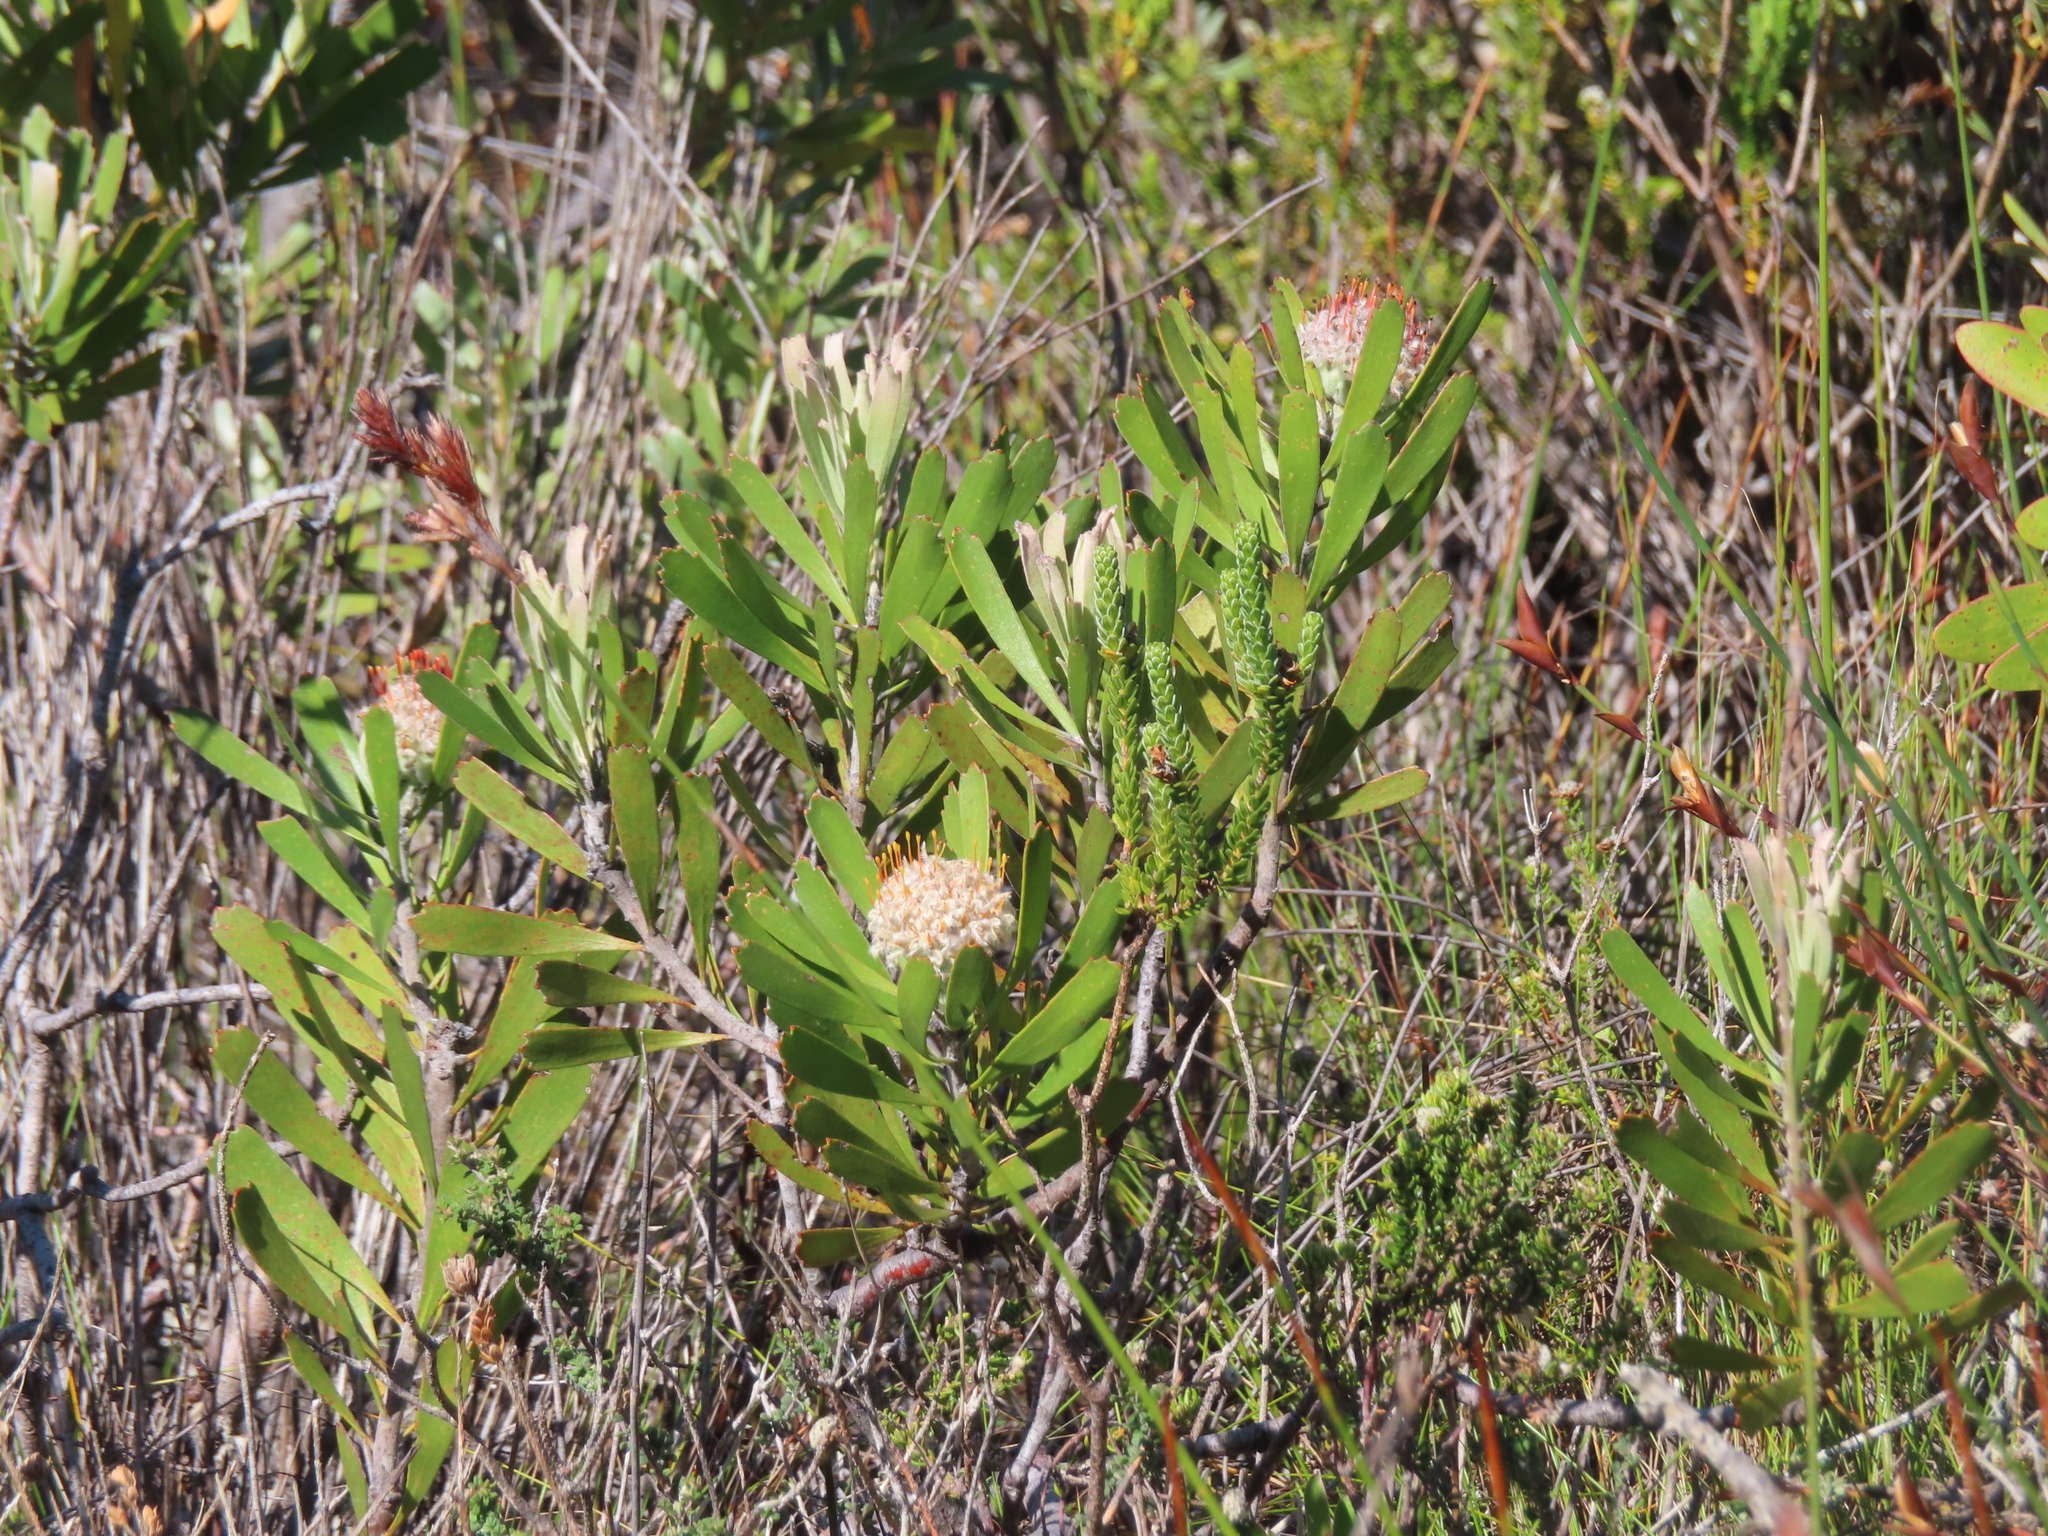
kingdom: Plantae
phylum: Tracheophyta
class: Magnoliopsida
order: Proteales
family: Proteaceae
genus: Leucospermum
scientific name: Leucospermum truncatum
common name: Limestone pincushion
